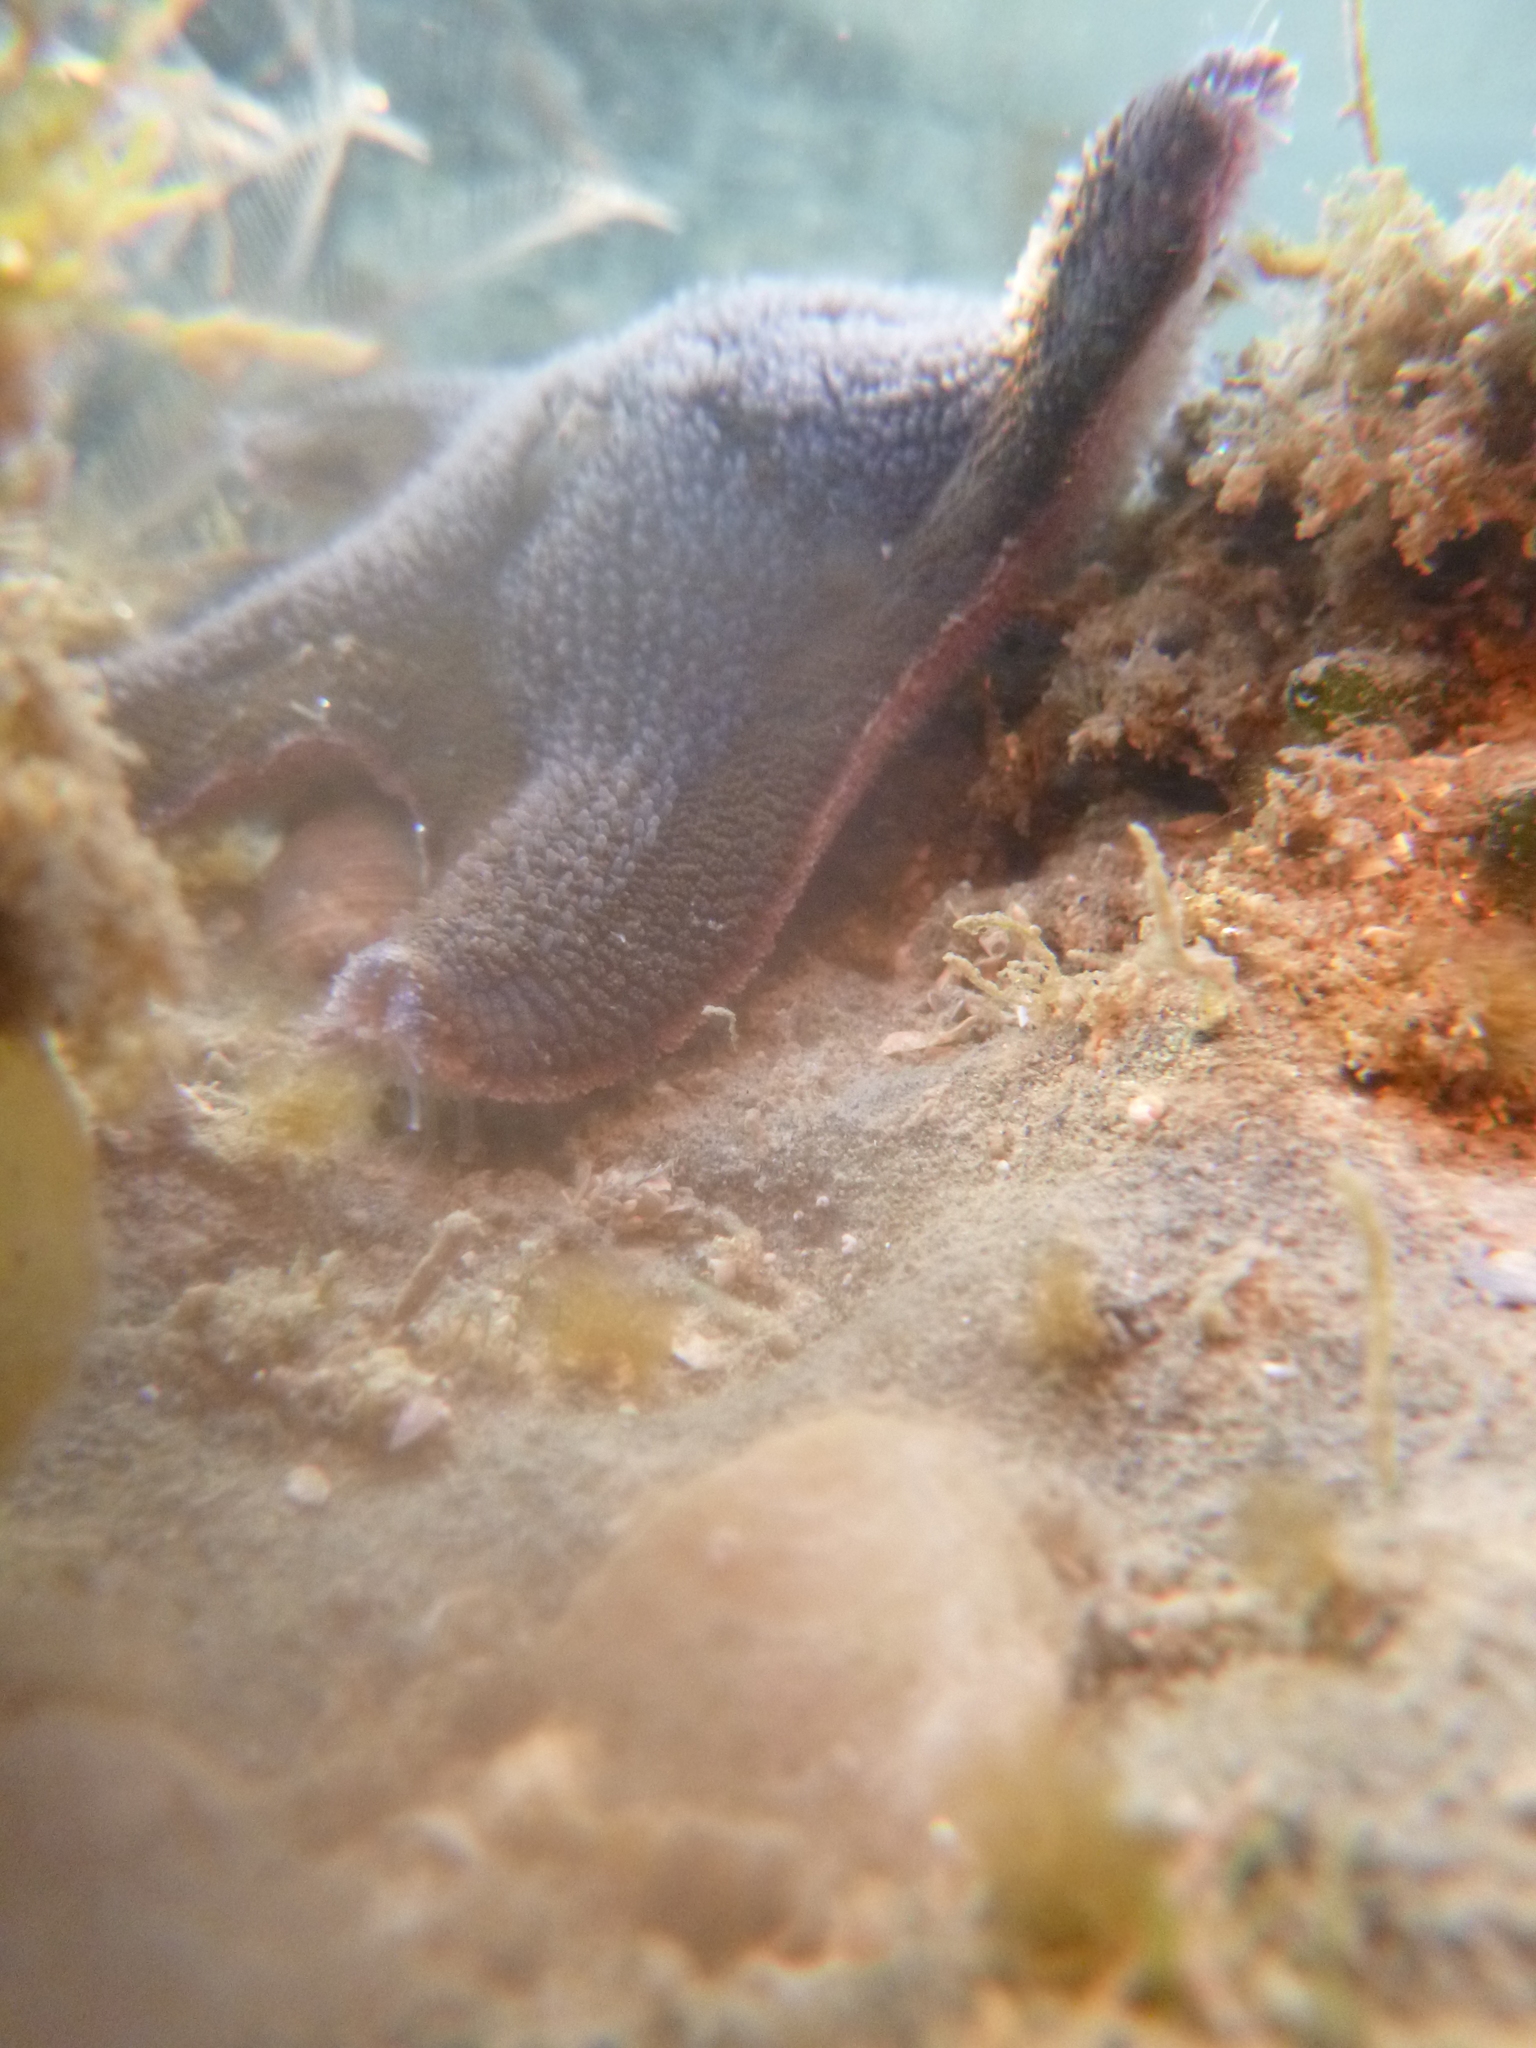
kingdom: Animalia
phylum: Echinodermata
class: Asteroidea
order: Valvatida
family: Asterinidae
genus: Patiriella
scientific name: Patiriella regularis
